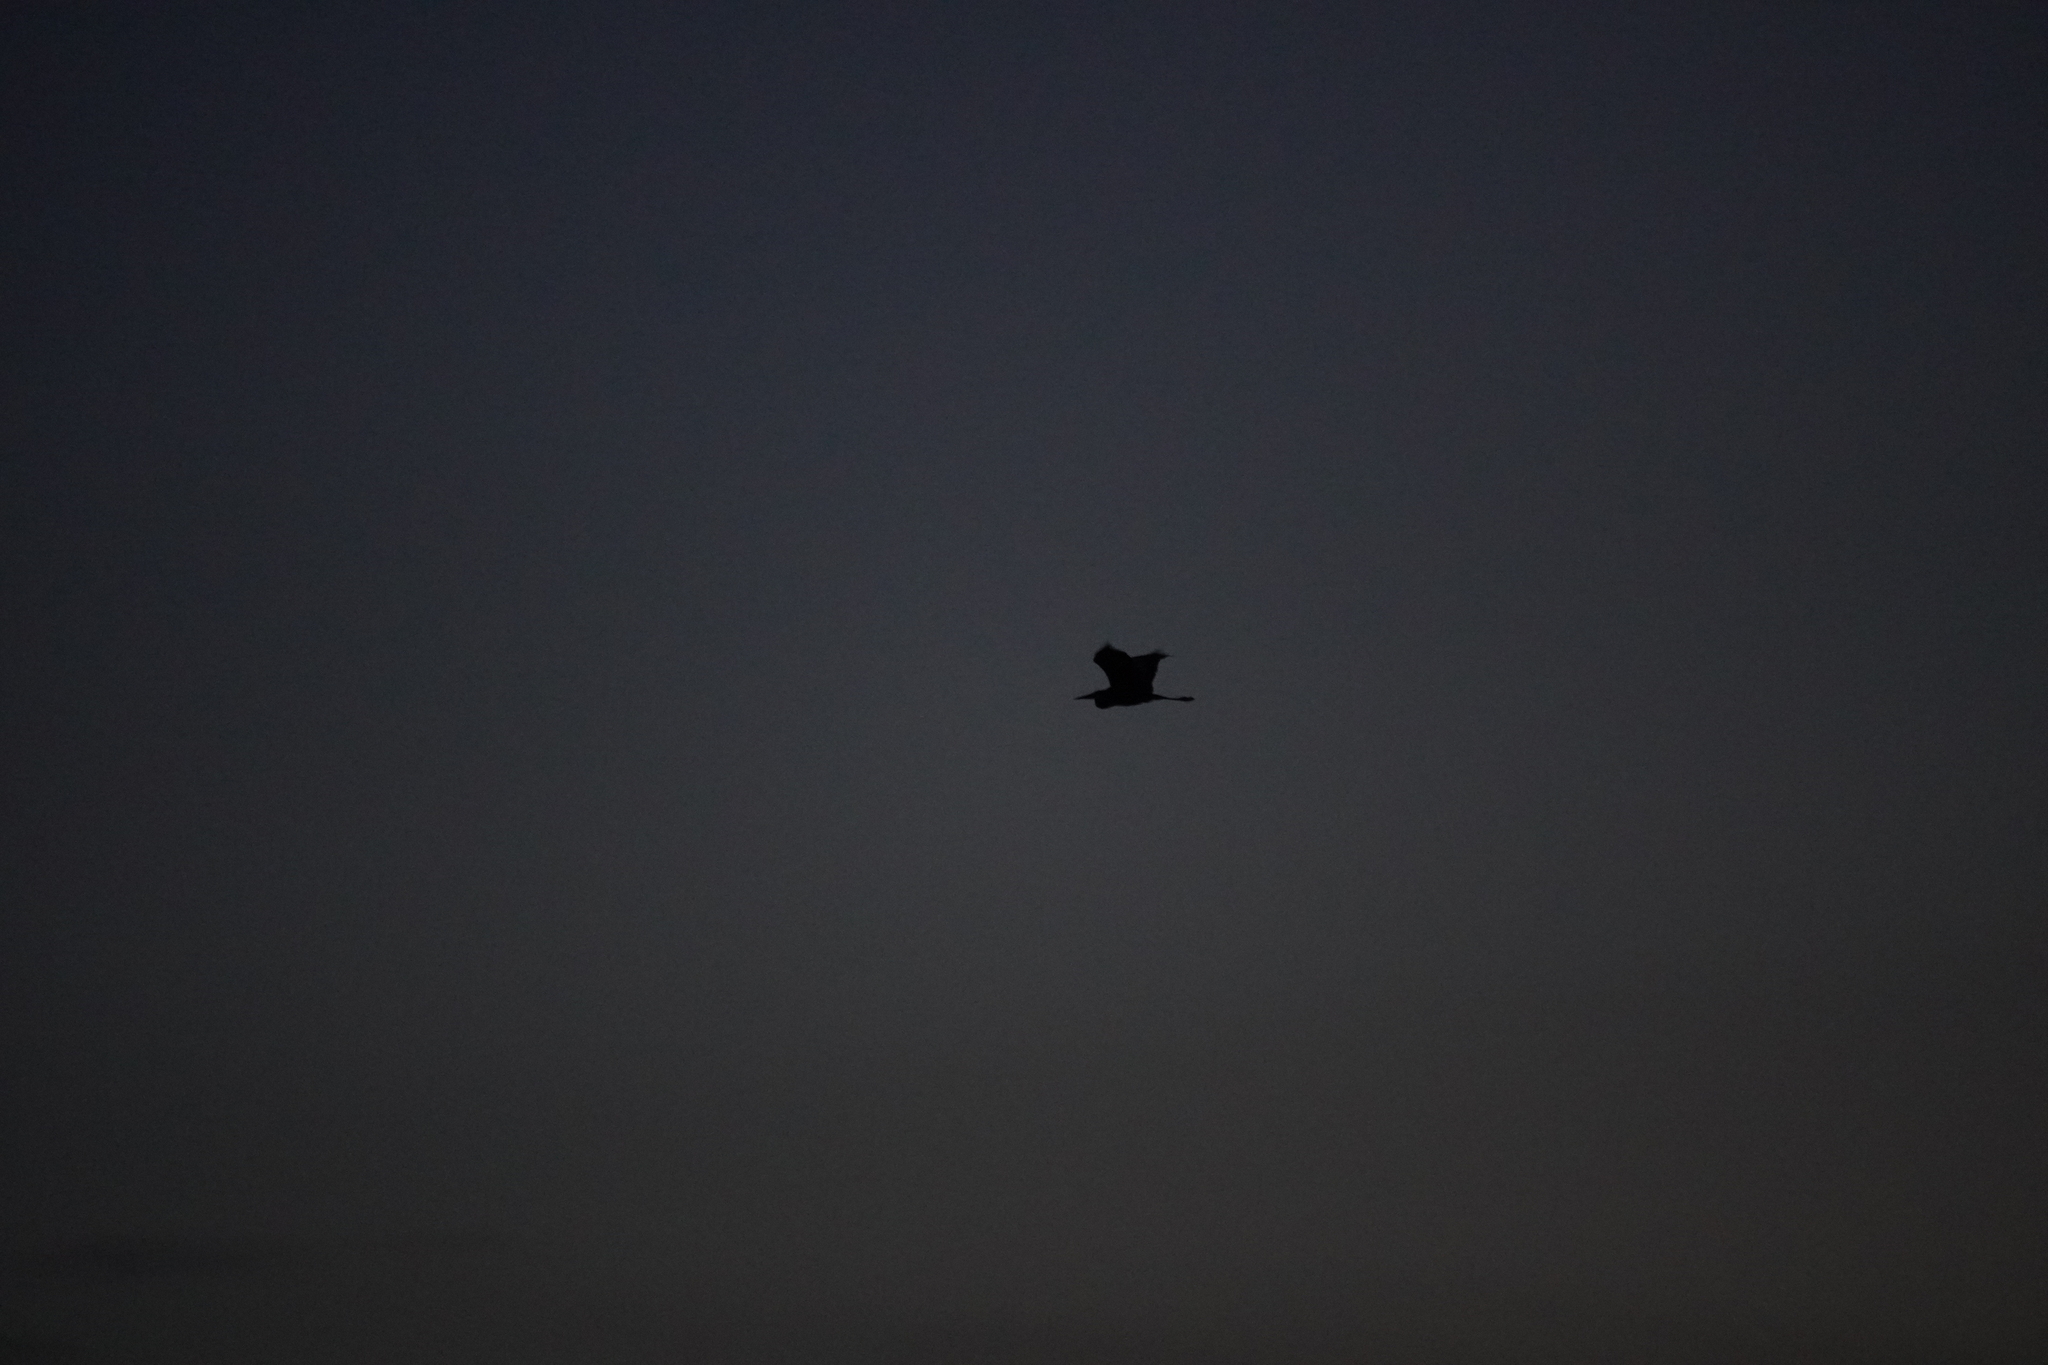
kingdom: Animalia
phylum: Chordata
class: Aves
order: Pelecaniformes
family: Ardeidae
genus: Ardea
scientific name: Ardea herodias
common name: Great blue heron
